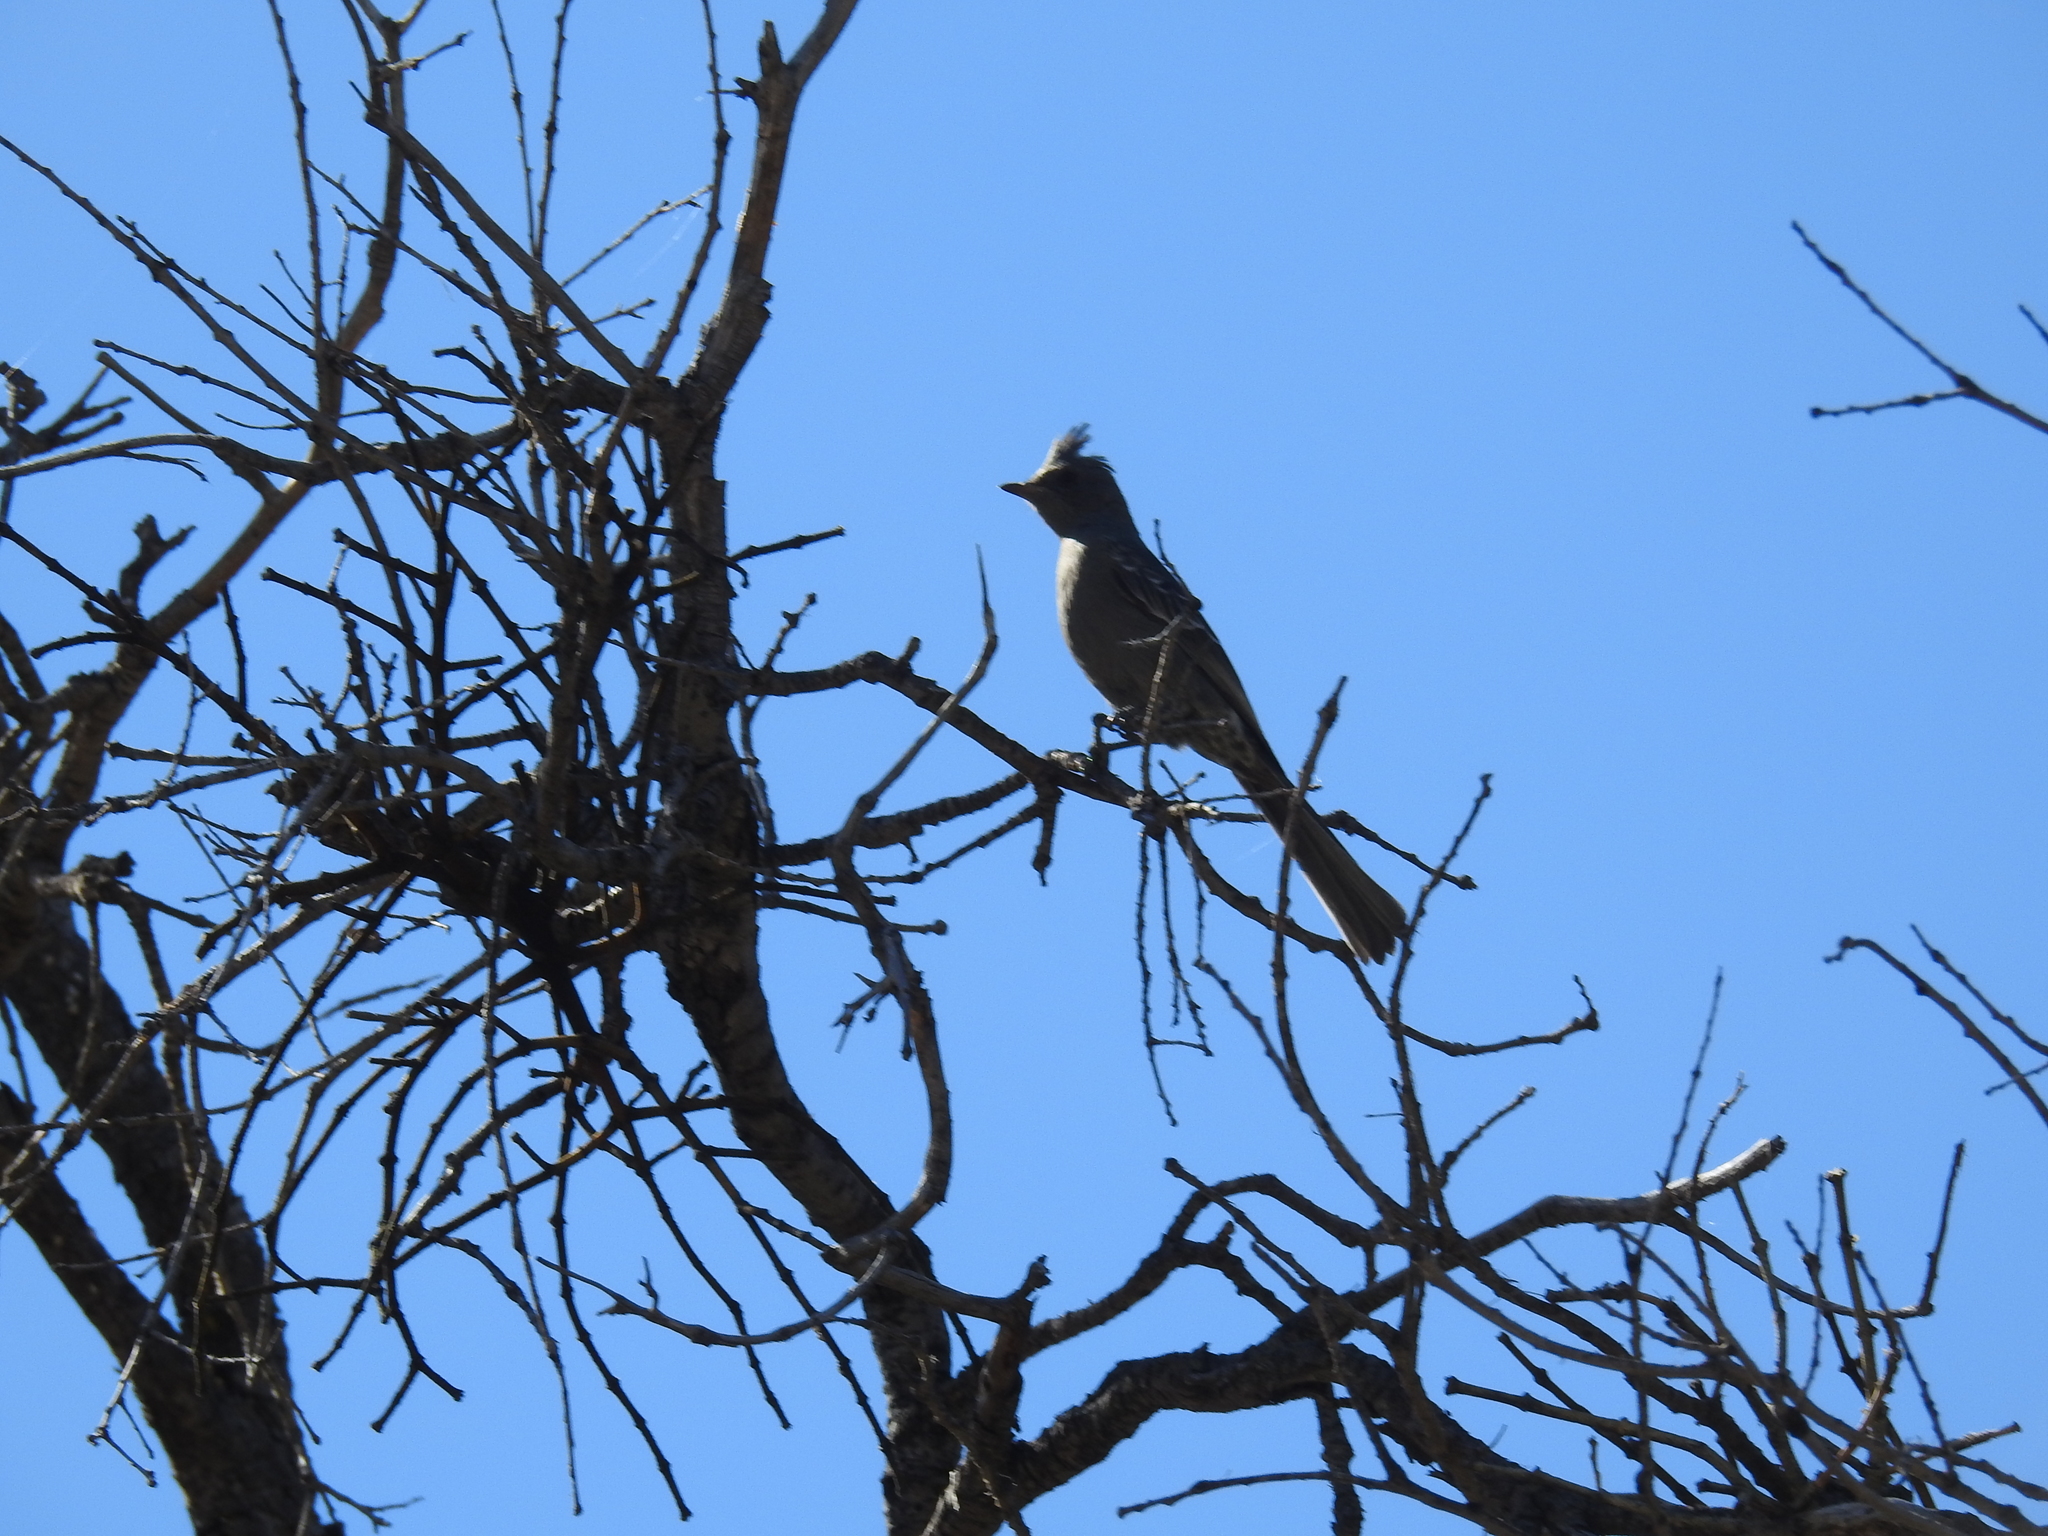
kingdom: Animalia
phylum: Chordata
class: Aves
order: Passeriformes
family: Ptilogonatidae
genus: Phainopepla
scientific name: Phainopepla nitens
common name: Phainopepla
